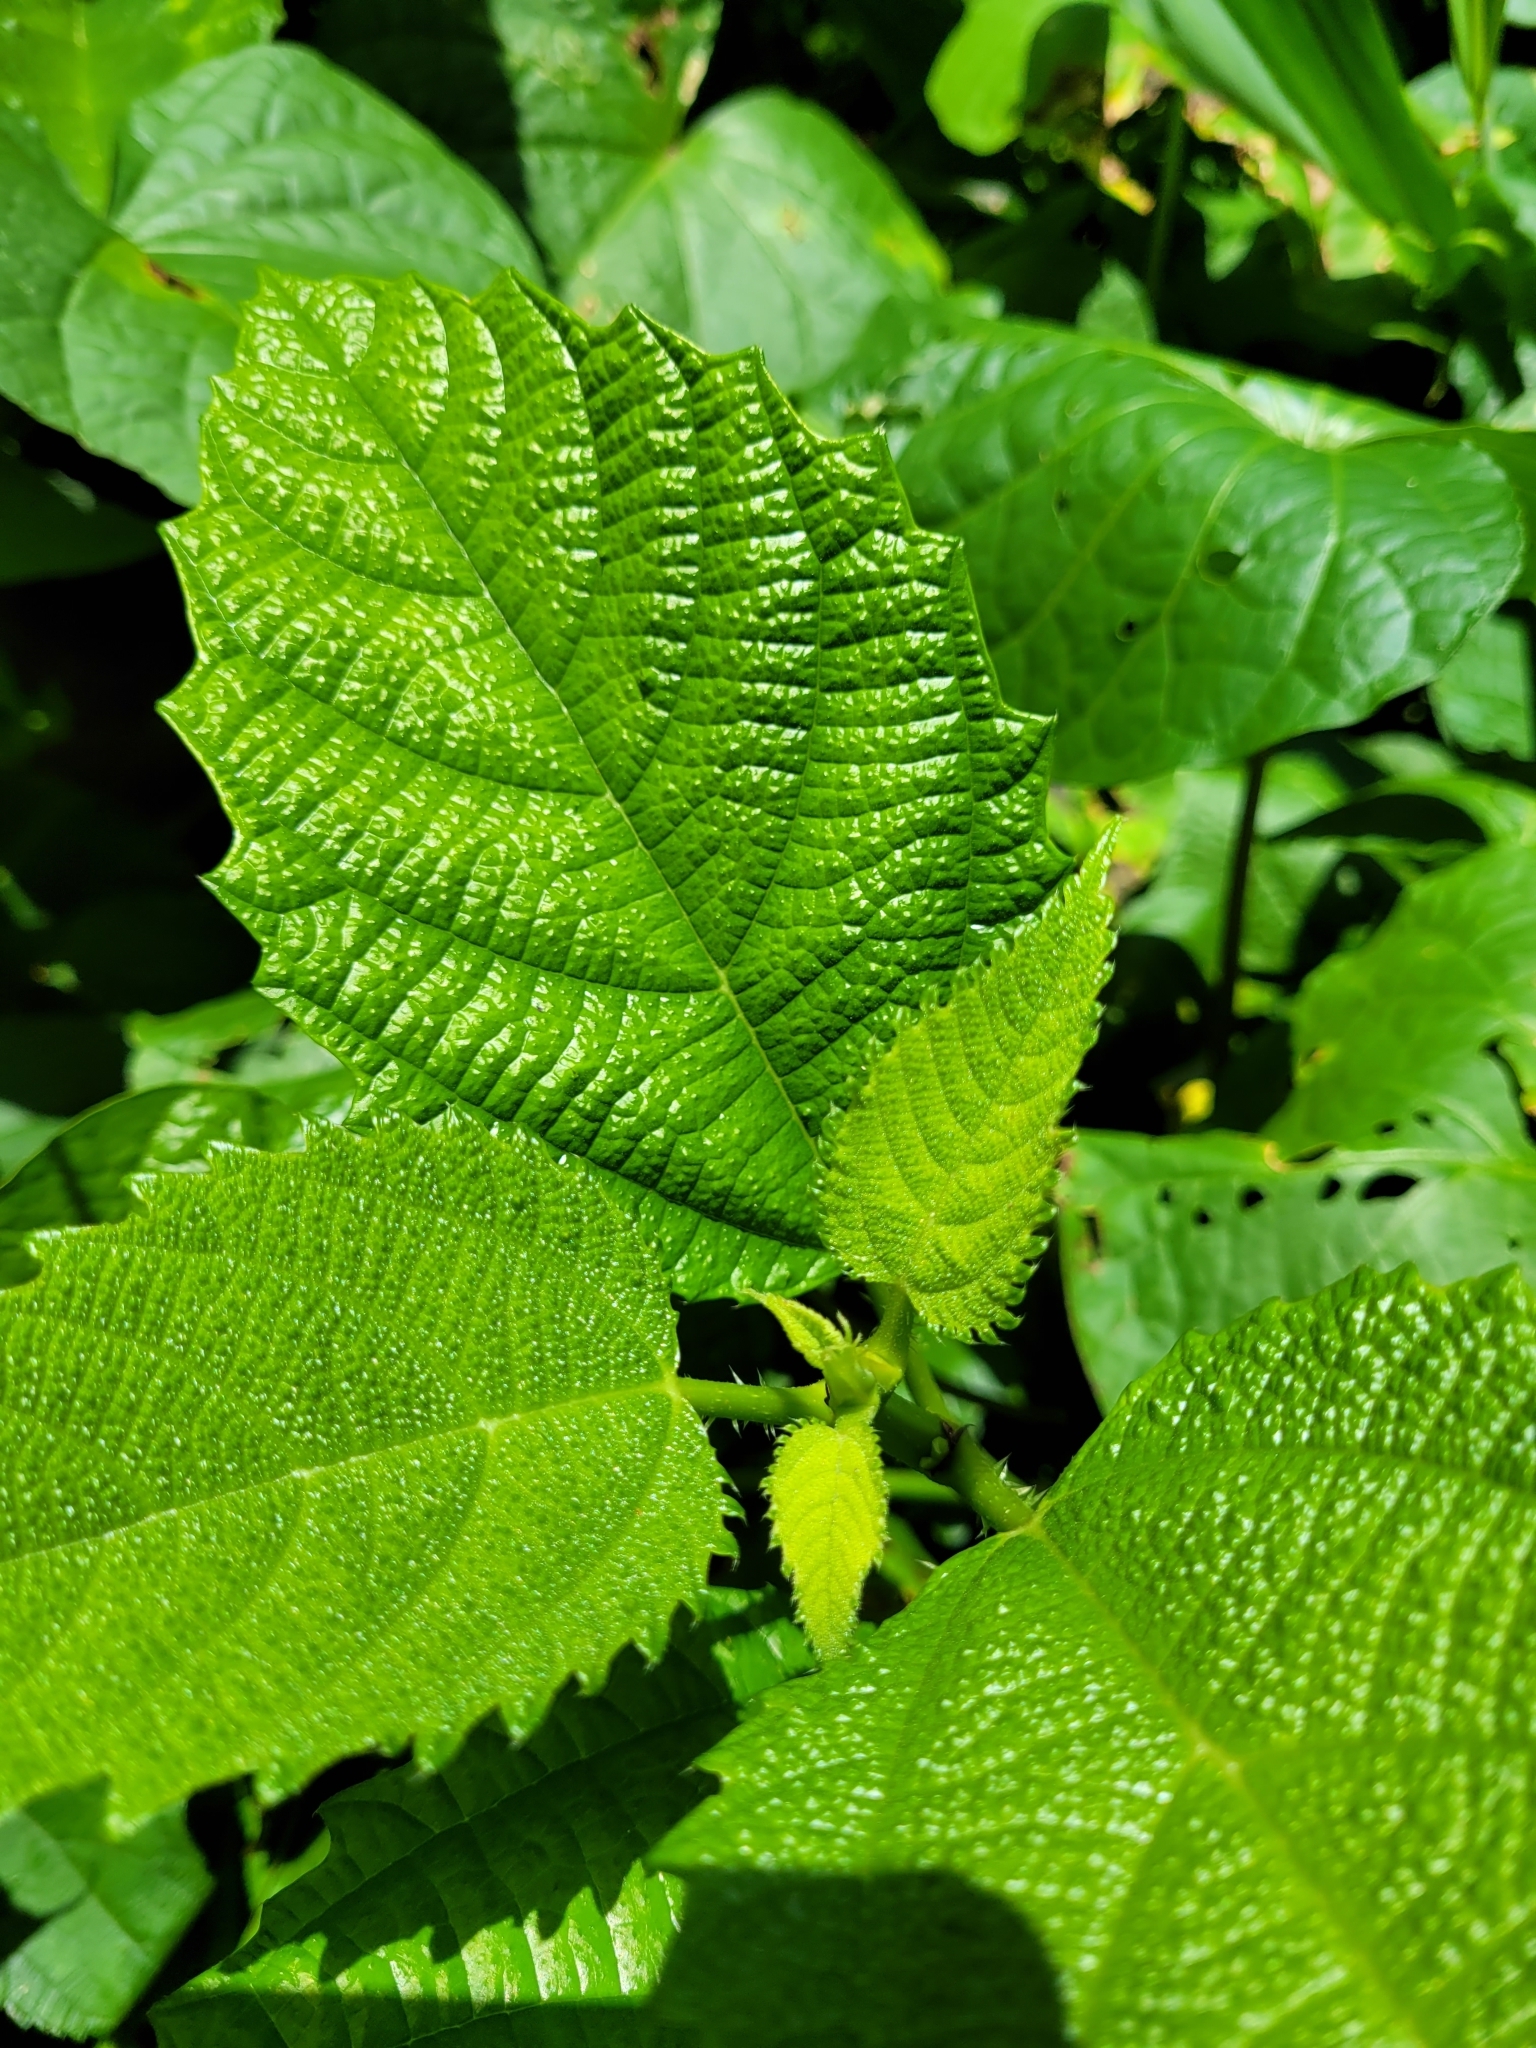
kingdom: Plantae
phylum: Tracheophyta
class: Magnoliopsida
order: Rosales
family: Urticaceae
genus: Urera
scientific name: Urera baccifera
